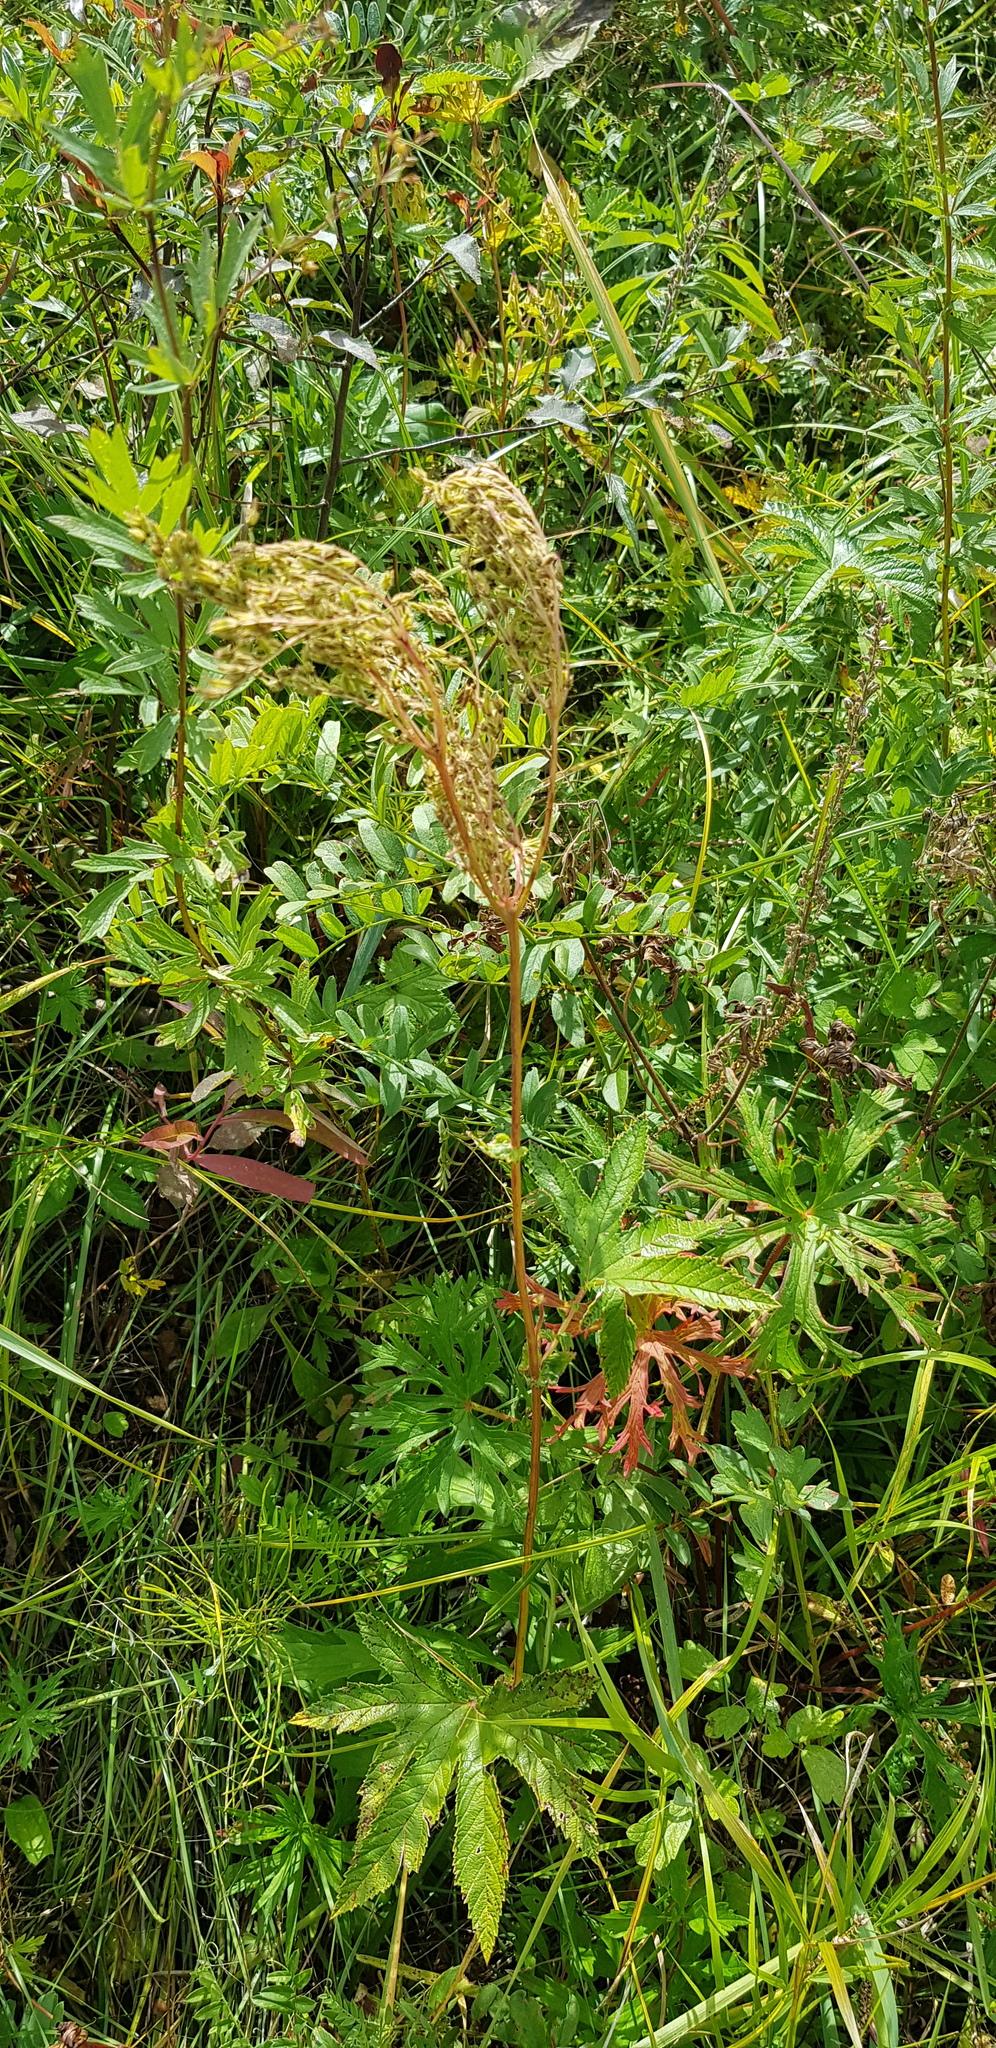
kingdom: Plantae
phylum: Tracheophyta
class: Magnoliopsida
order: Rosales
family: Rosaceae
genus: Filipendula
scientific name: Filipendula digitata
